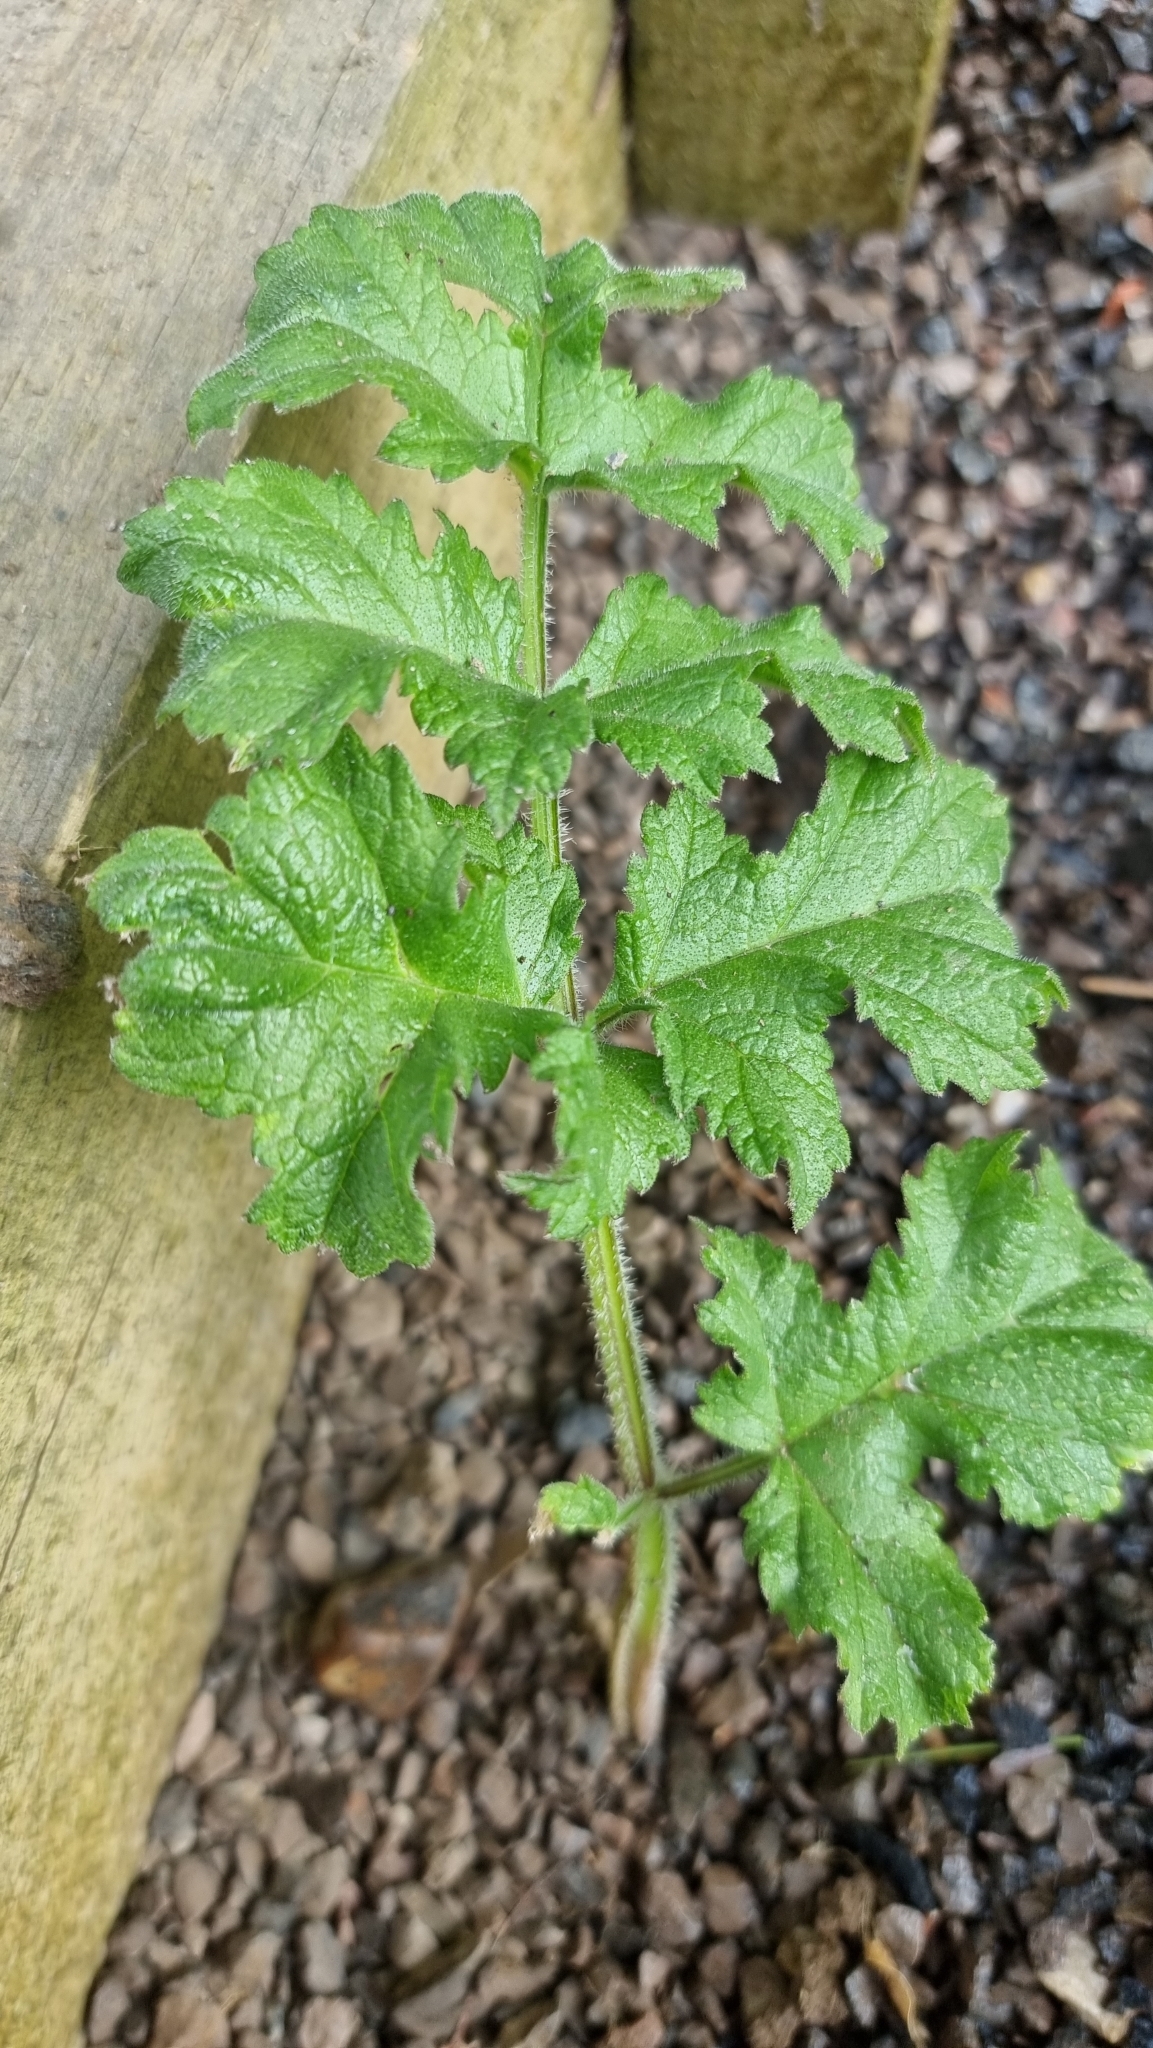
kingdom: Plantae
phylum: Tracheophyta
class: Magnoliopsida
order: Apiales
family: Apiaceae
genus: Heracleum
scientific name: Heracleum sphondylium
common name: Hogweed
